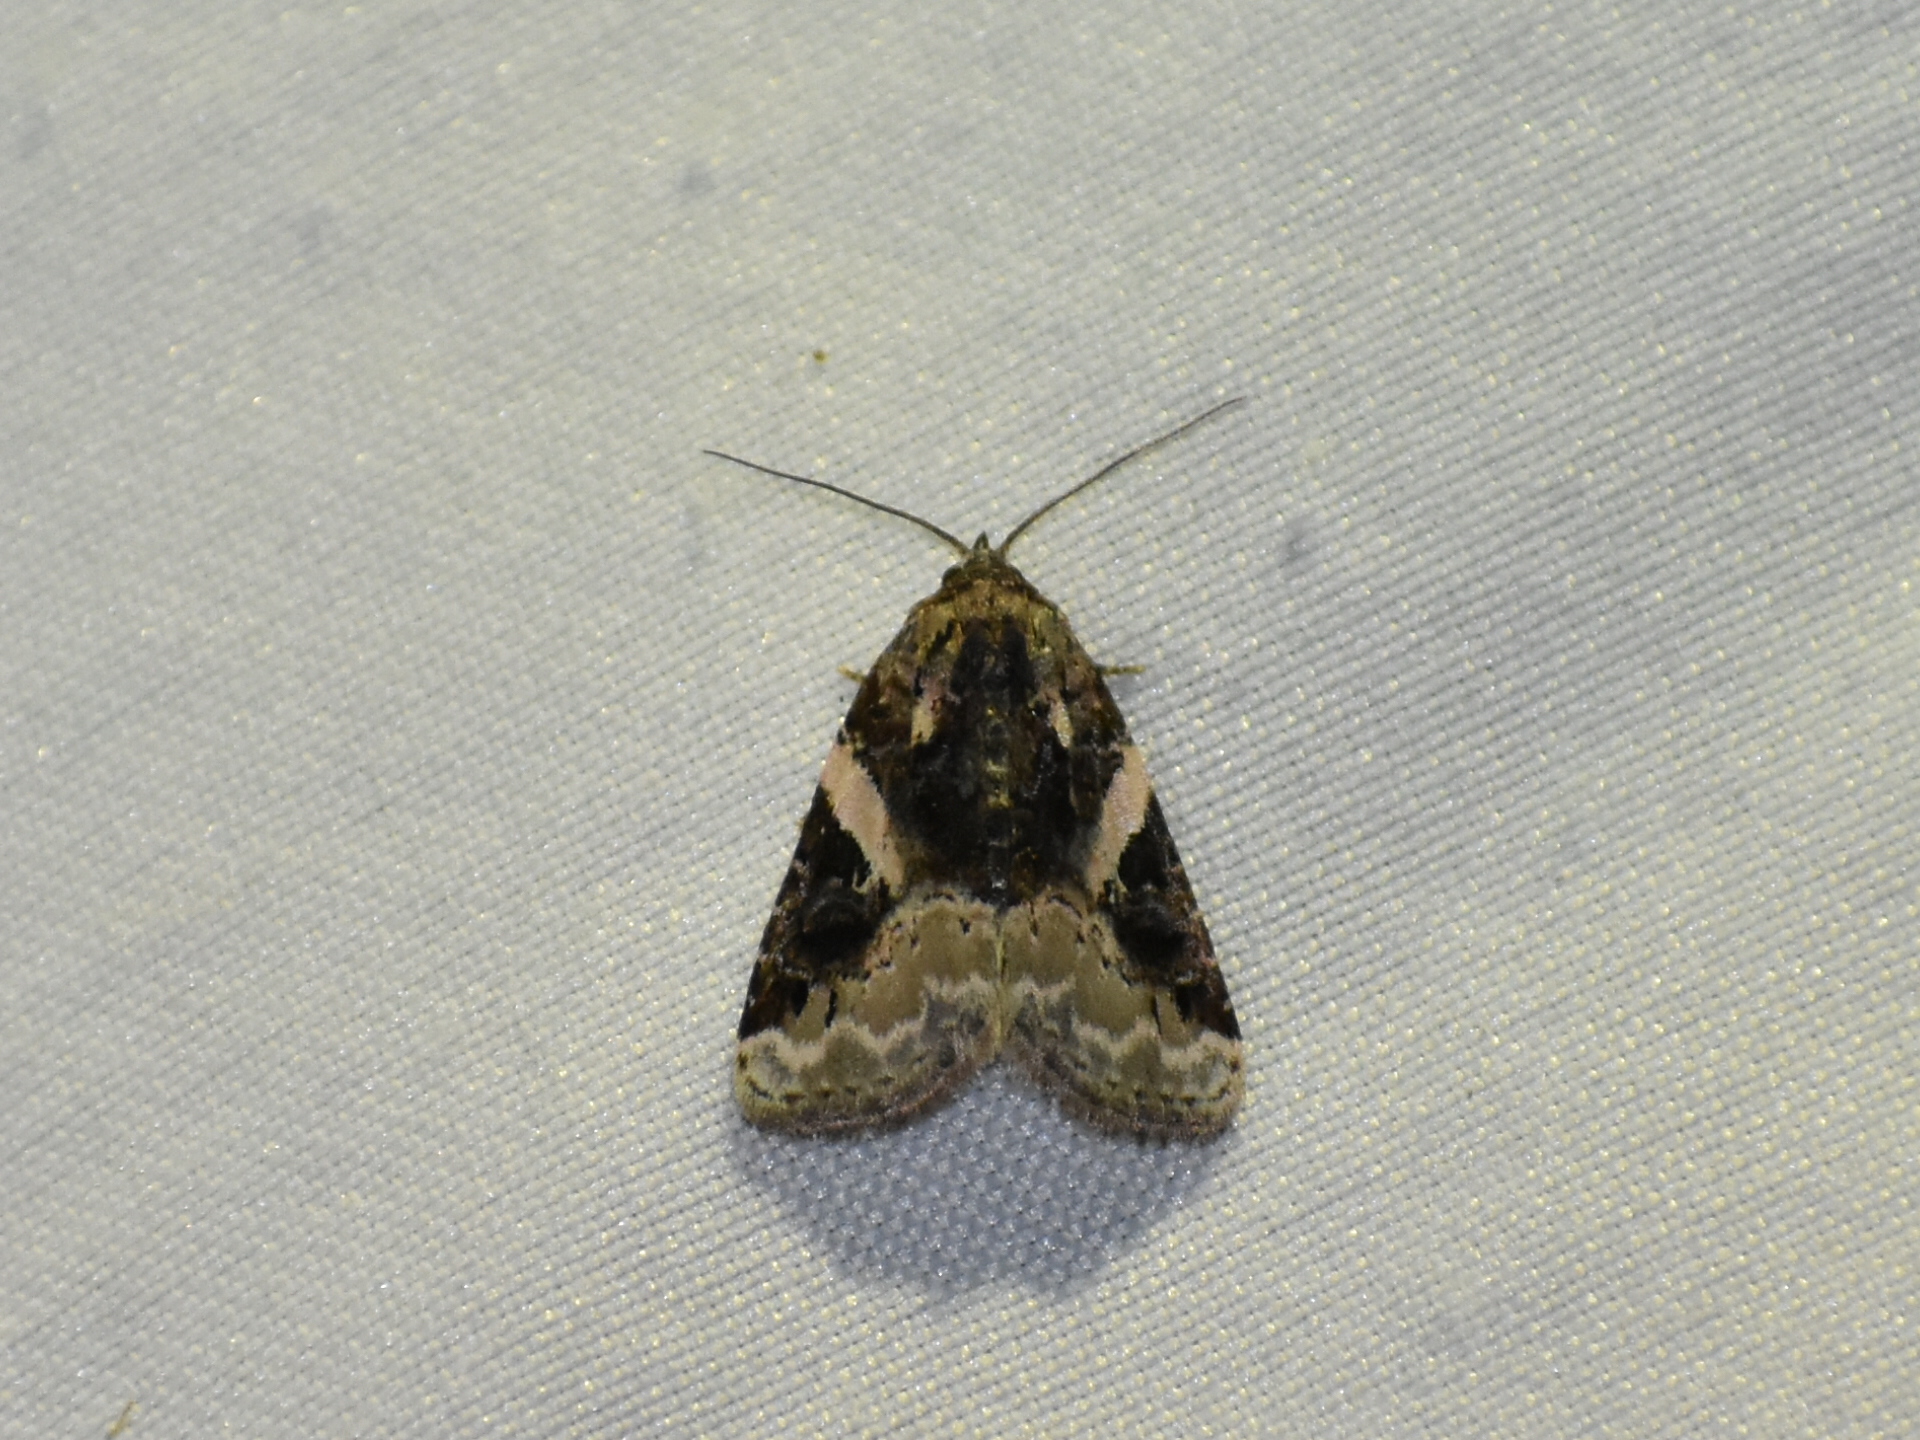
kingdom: Animalia
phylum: Arthropoda
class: Insecta
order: Lepidoptera
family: Noctuidae
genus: Pseudeustrotia
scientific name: Pseudeustrotia carneola
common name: Pink-barred lithacodia moth
